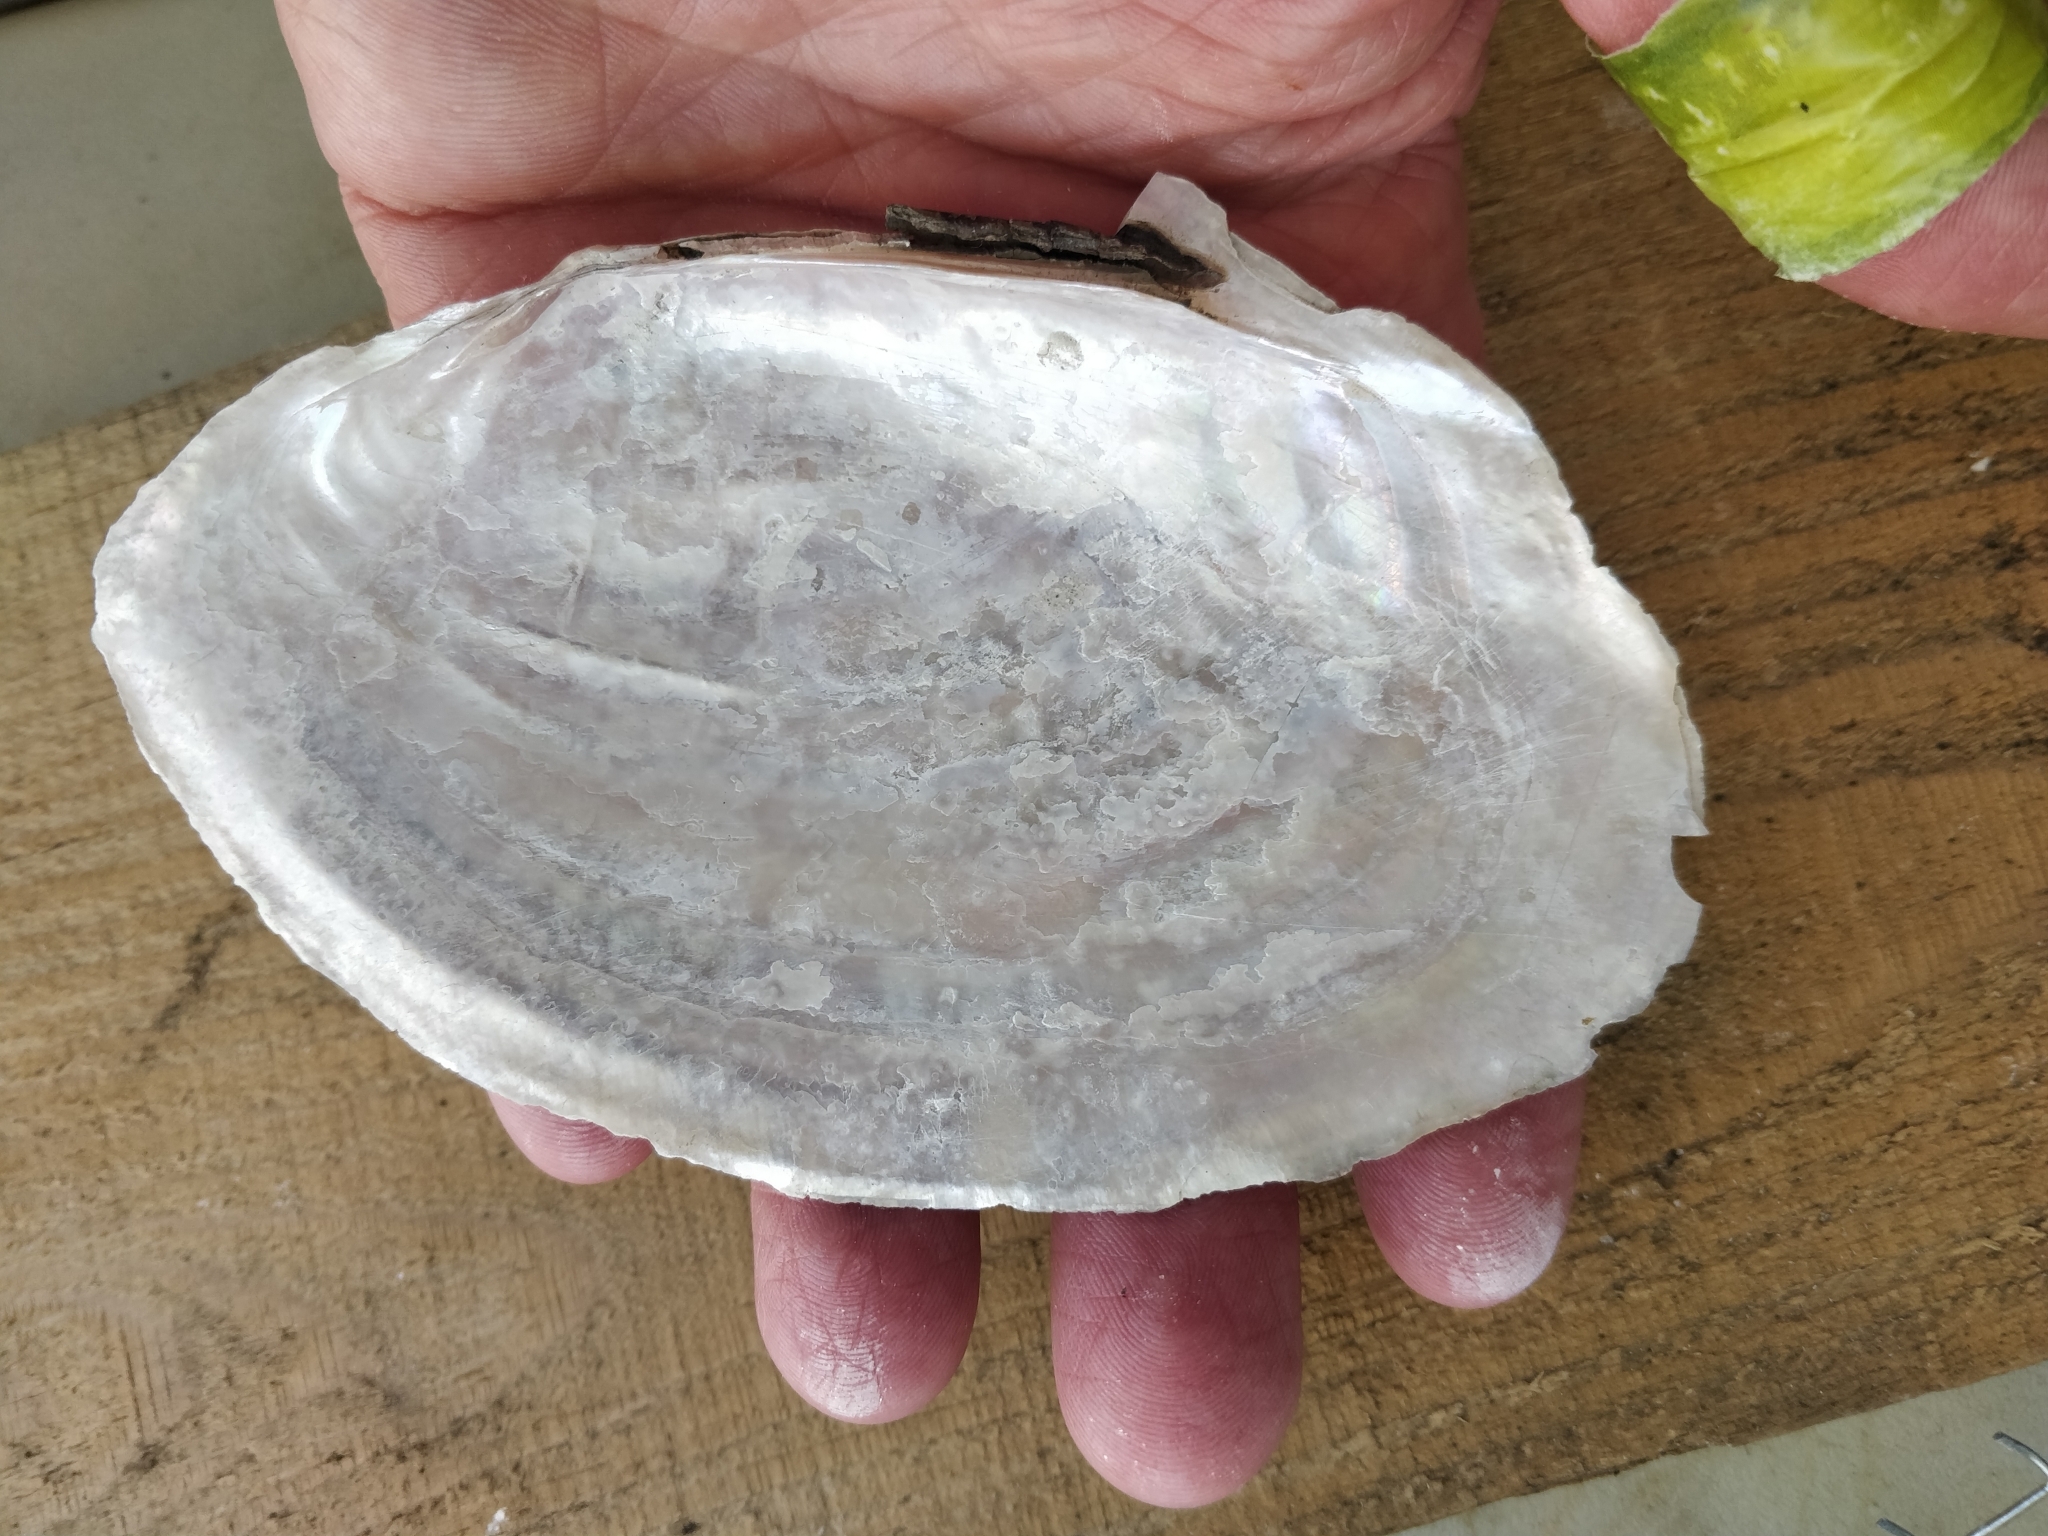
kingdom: Animalia
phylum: Mollusca
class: Bivalvia
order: Unionida
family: Unionidae
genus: Potamilus
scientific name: Potamilus ohiensis
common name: Pink papershell
